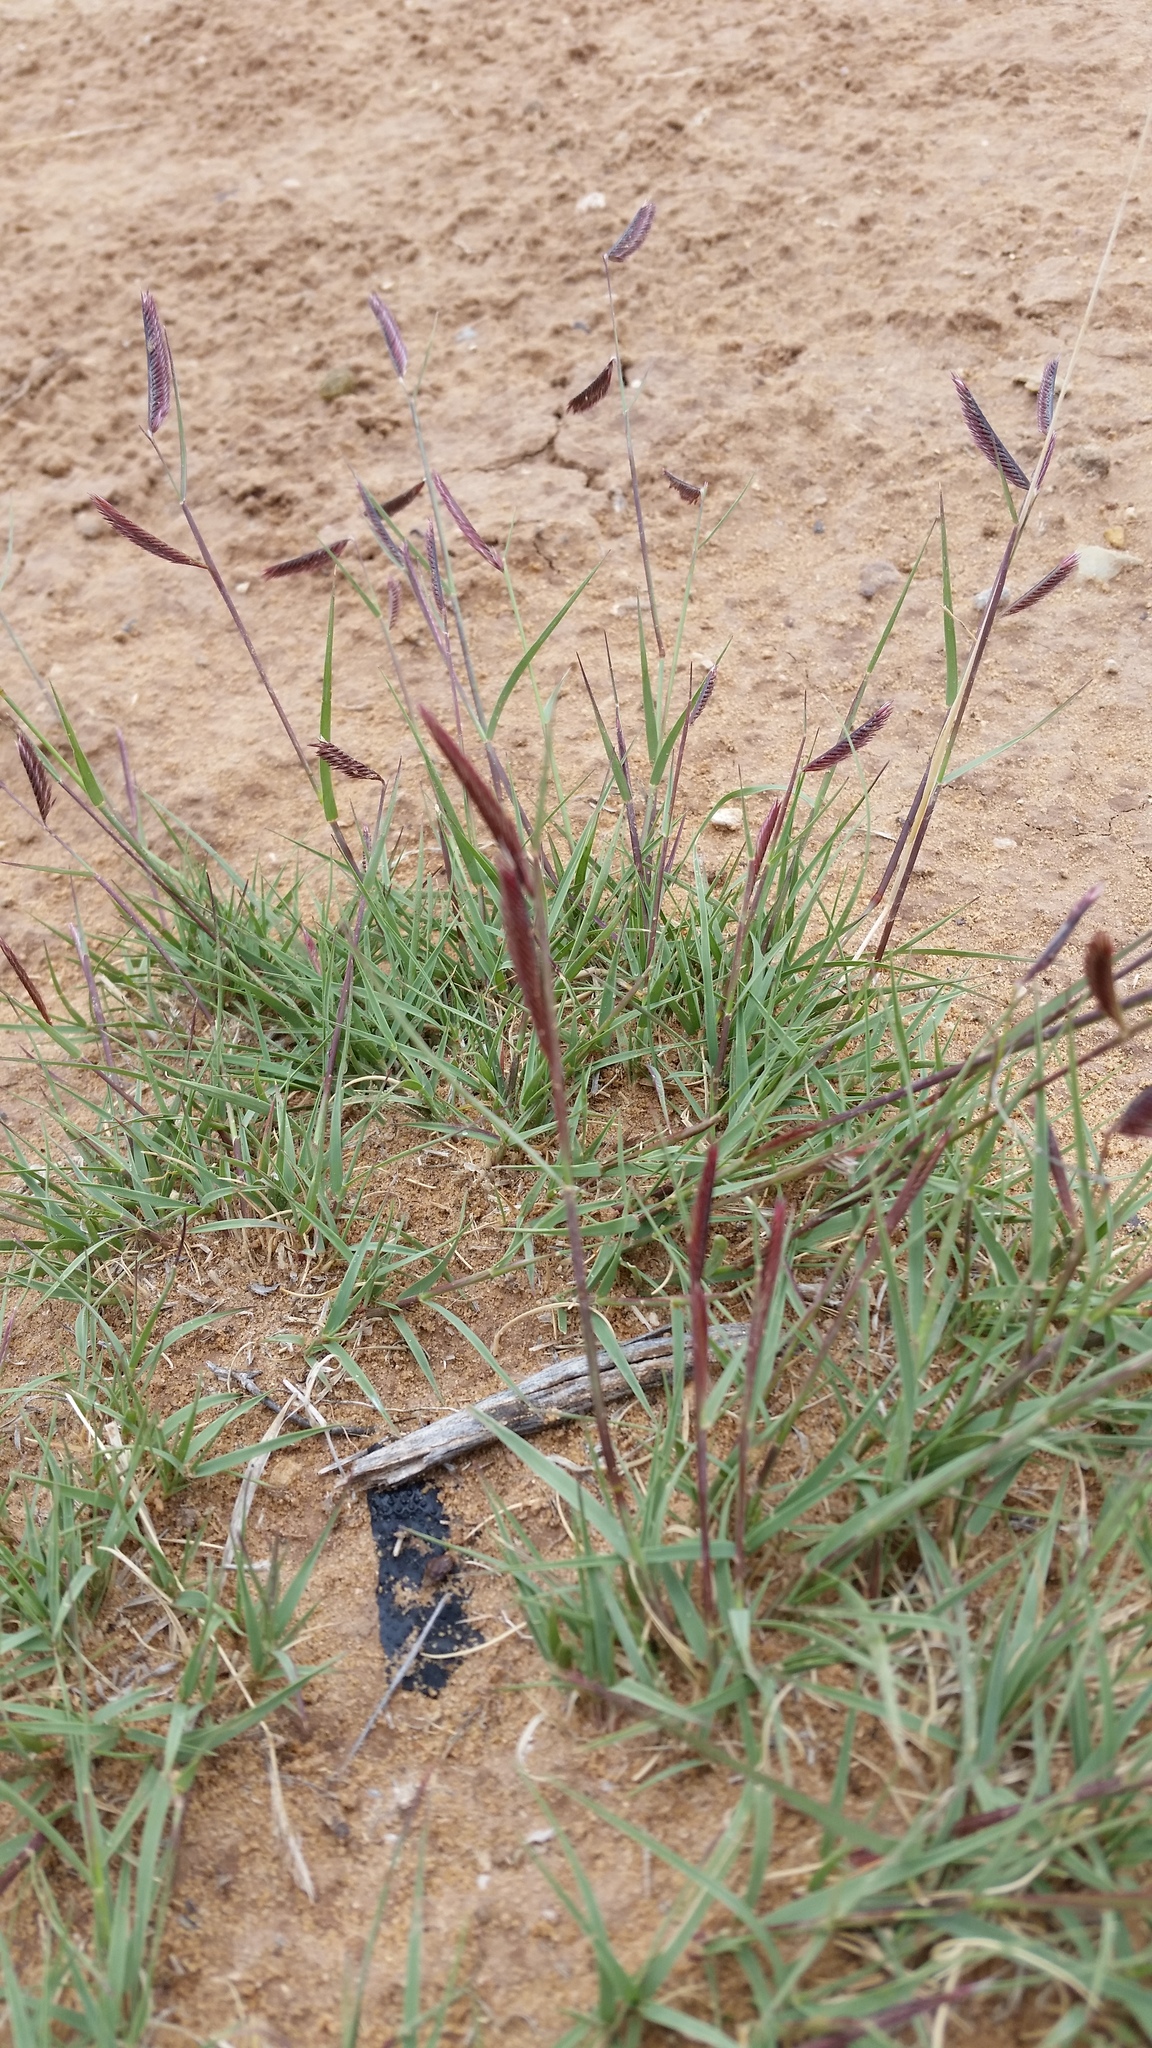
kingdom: Plantae
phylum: Tracheophyta
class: Liliopsida
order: Poales
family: Poaceae
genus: Bouteloua
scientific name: Bouteloua gracilis
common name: Blue grama
